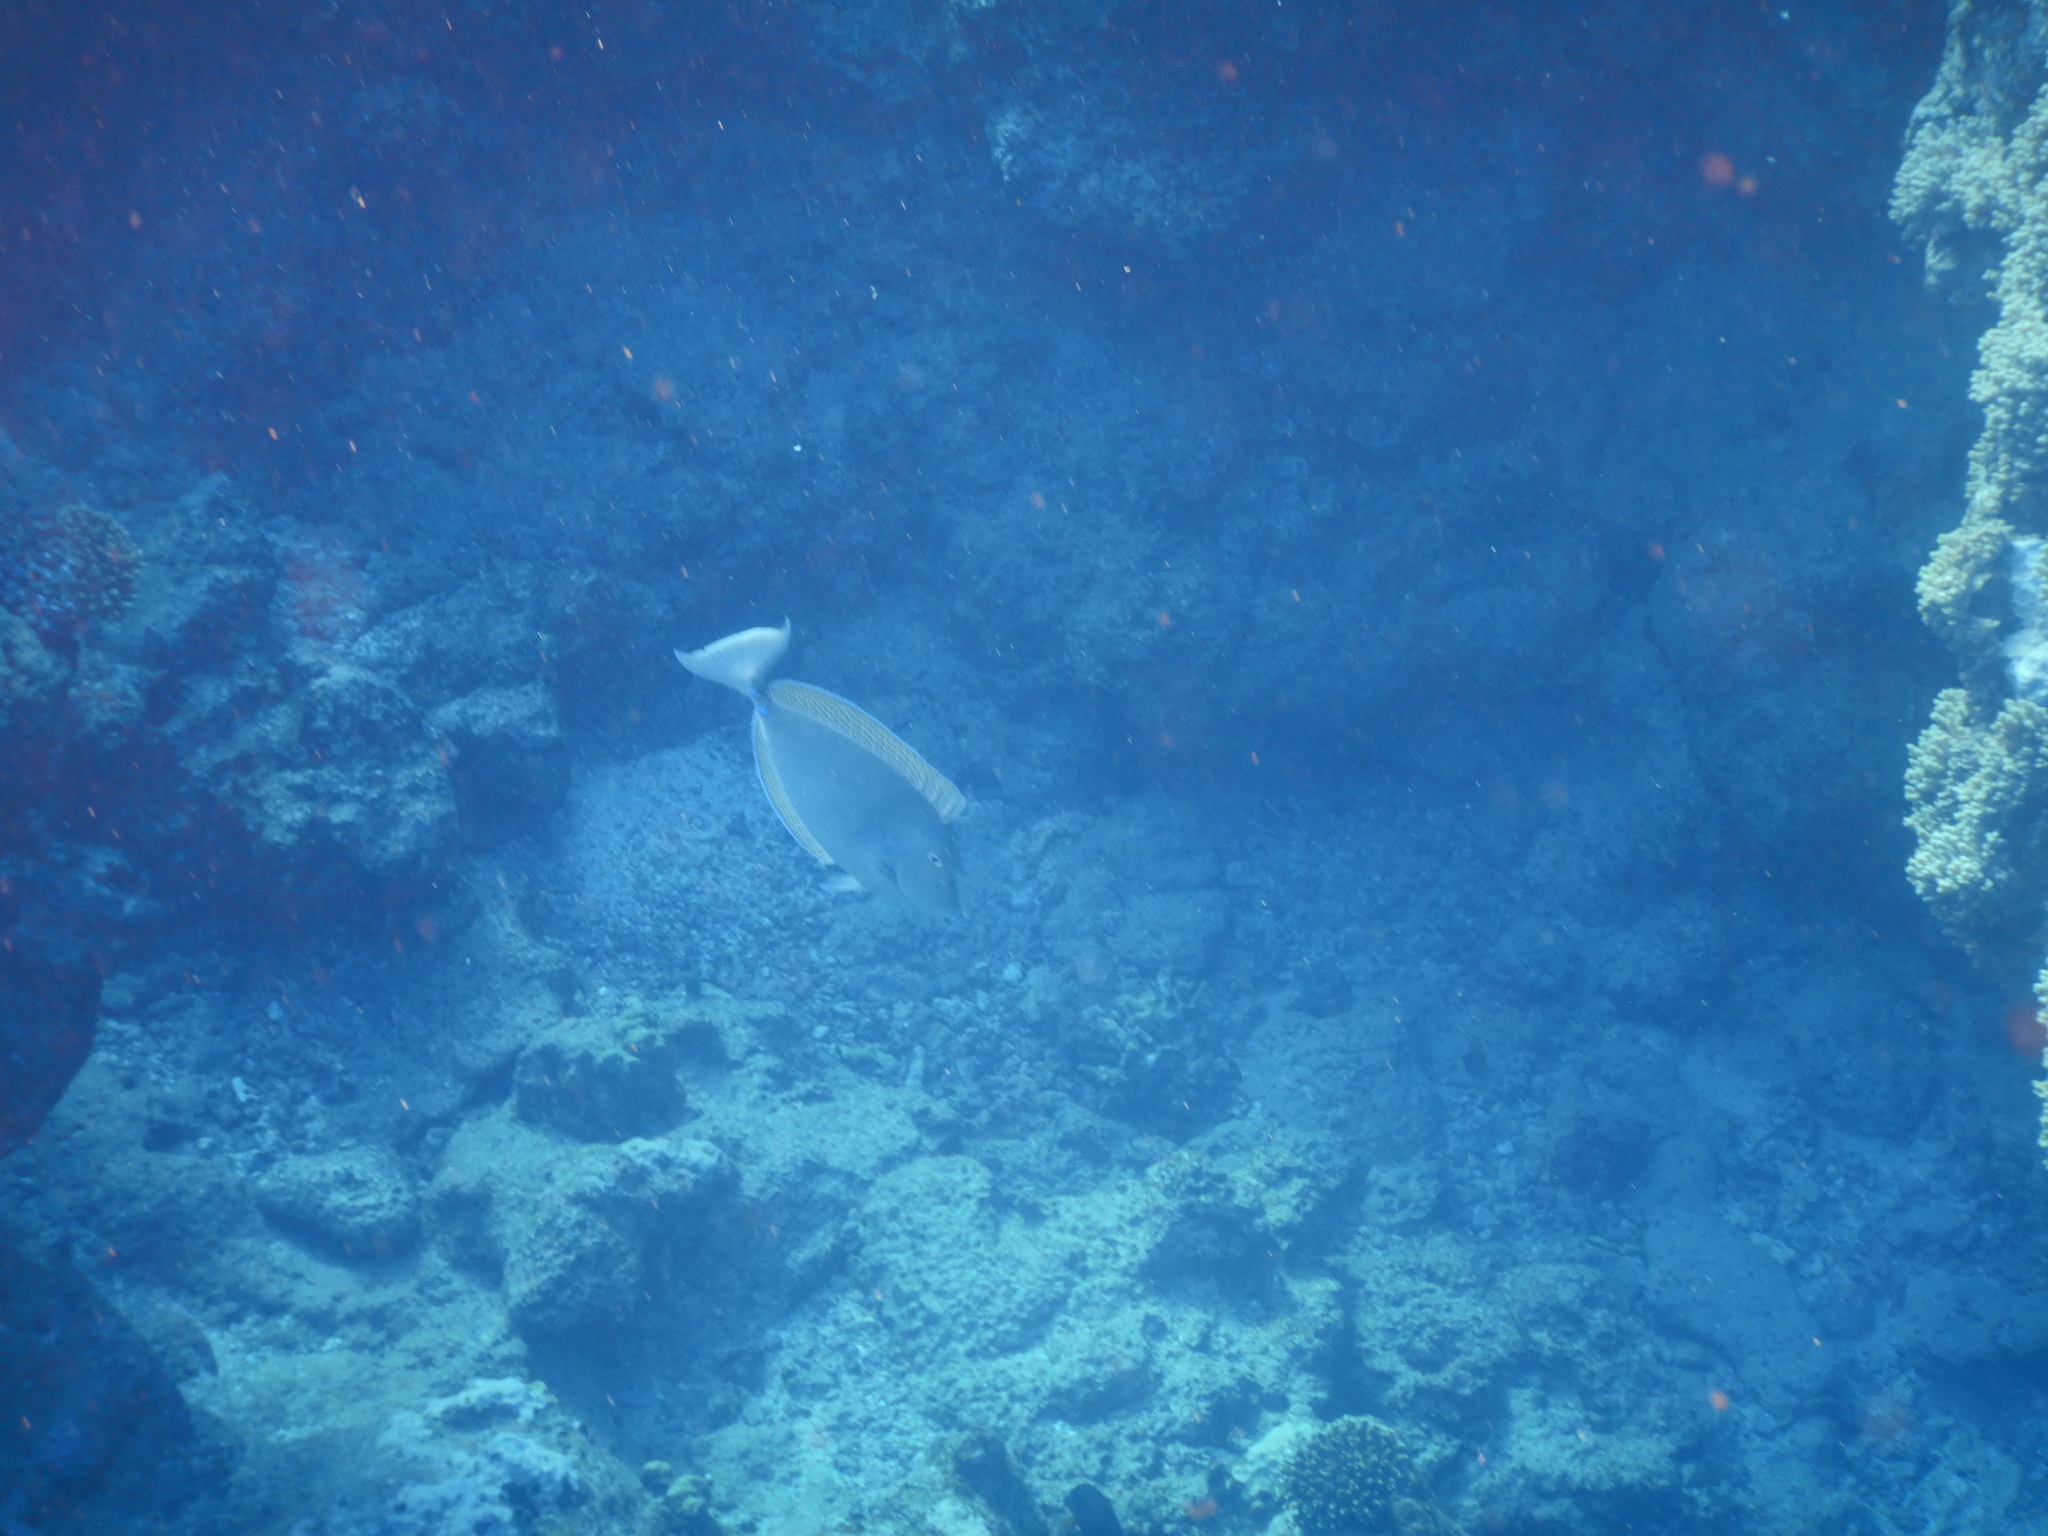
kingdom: Animalia
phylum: Chordata
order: Perciformes
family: Acanthuridae
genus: Naso
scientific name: Naso unicornis
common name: Bluespine unicornfish
